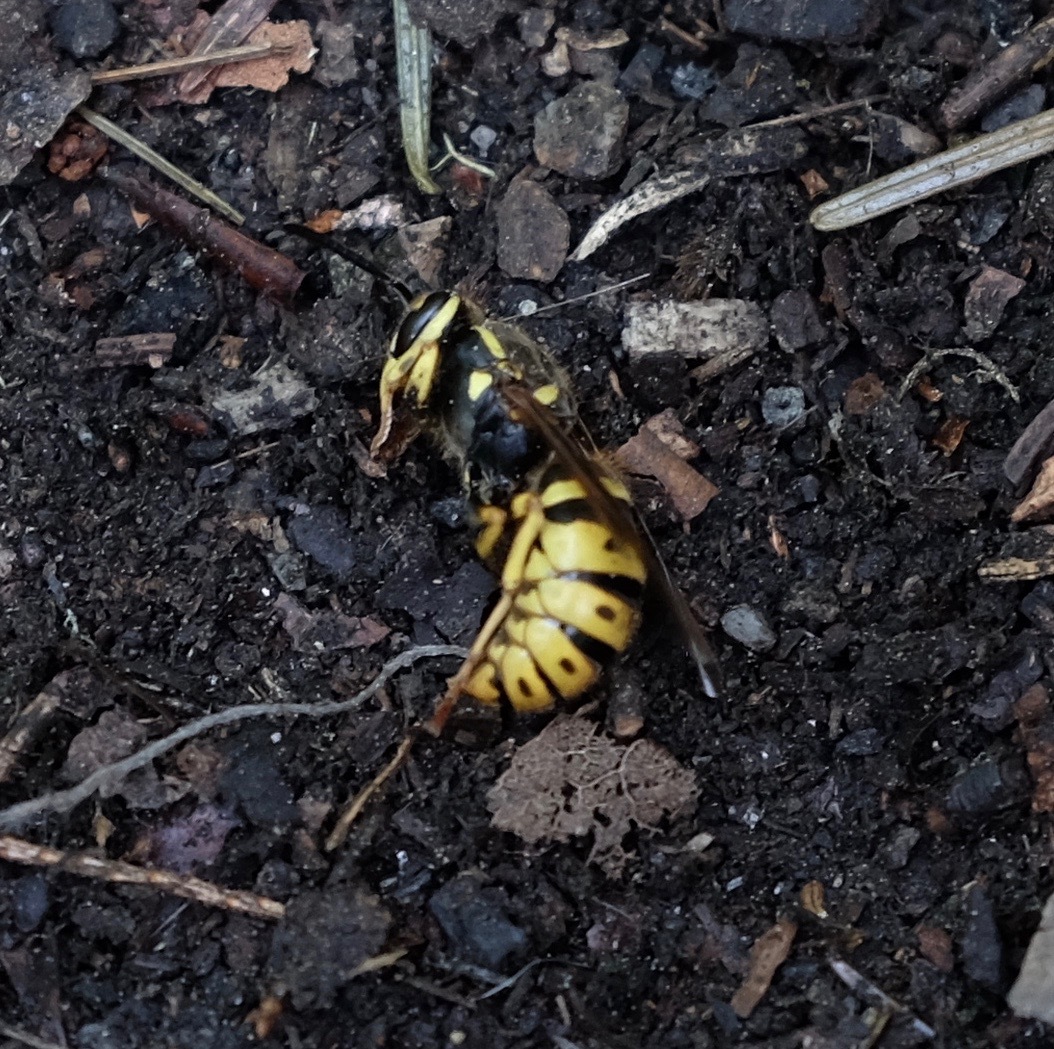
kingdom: Animalia
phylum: Arthropoda
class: Insecta
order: Hymenoptera
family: Vespidae
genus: Vespula
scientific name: Vespula flavopilosa
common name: Downy yellowjacket
